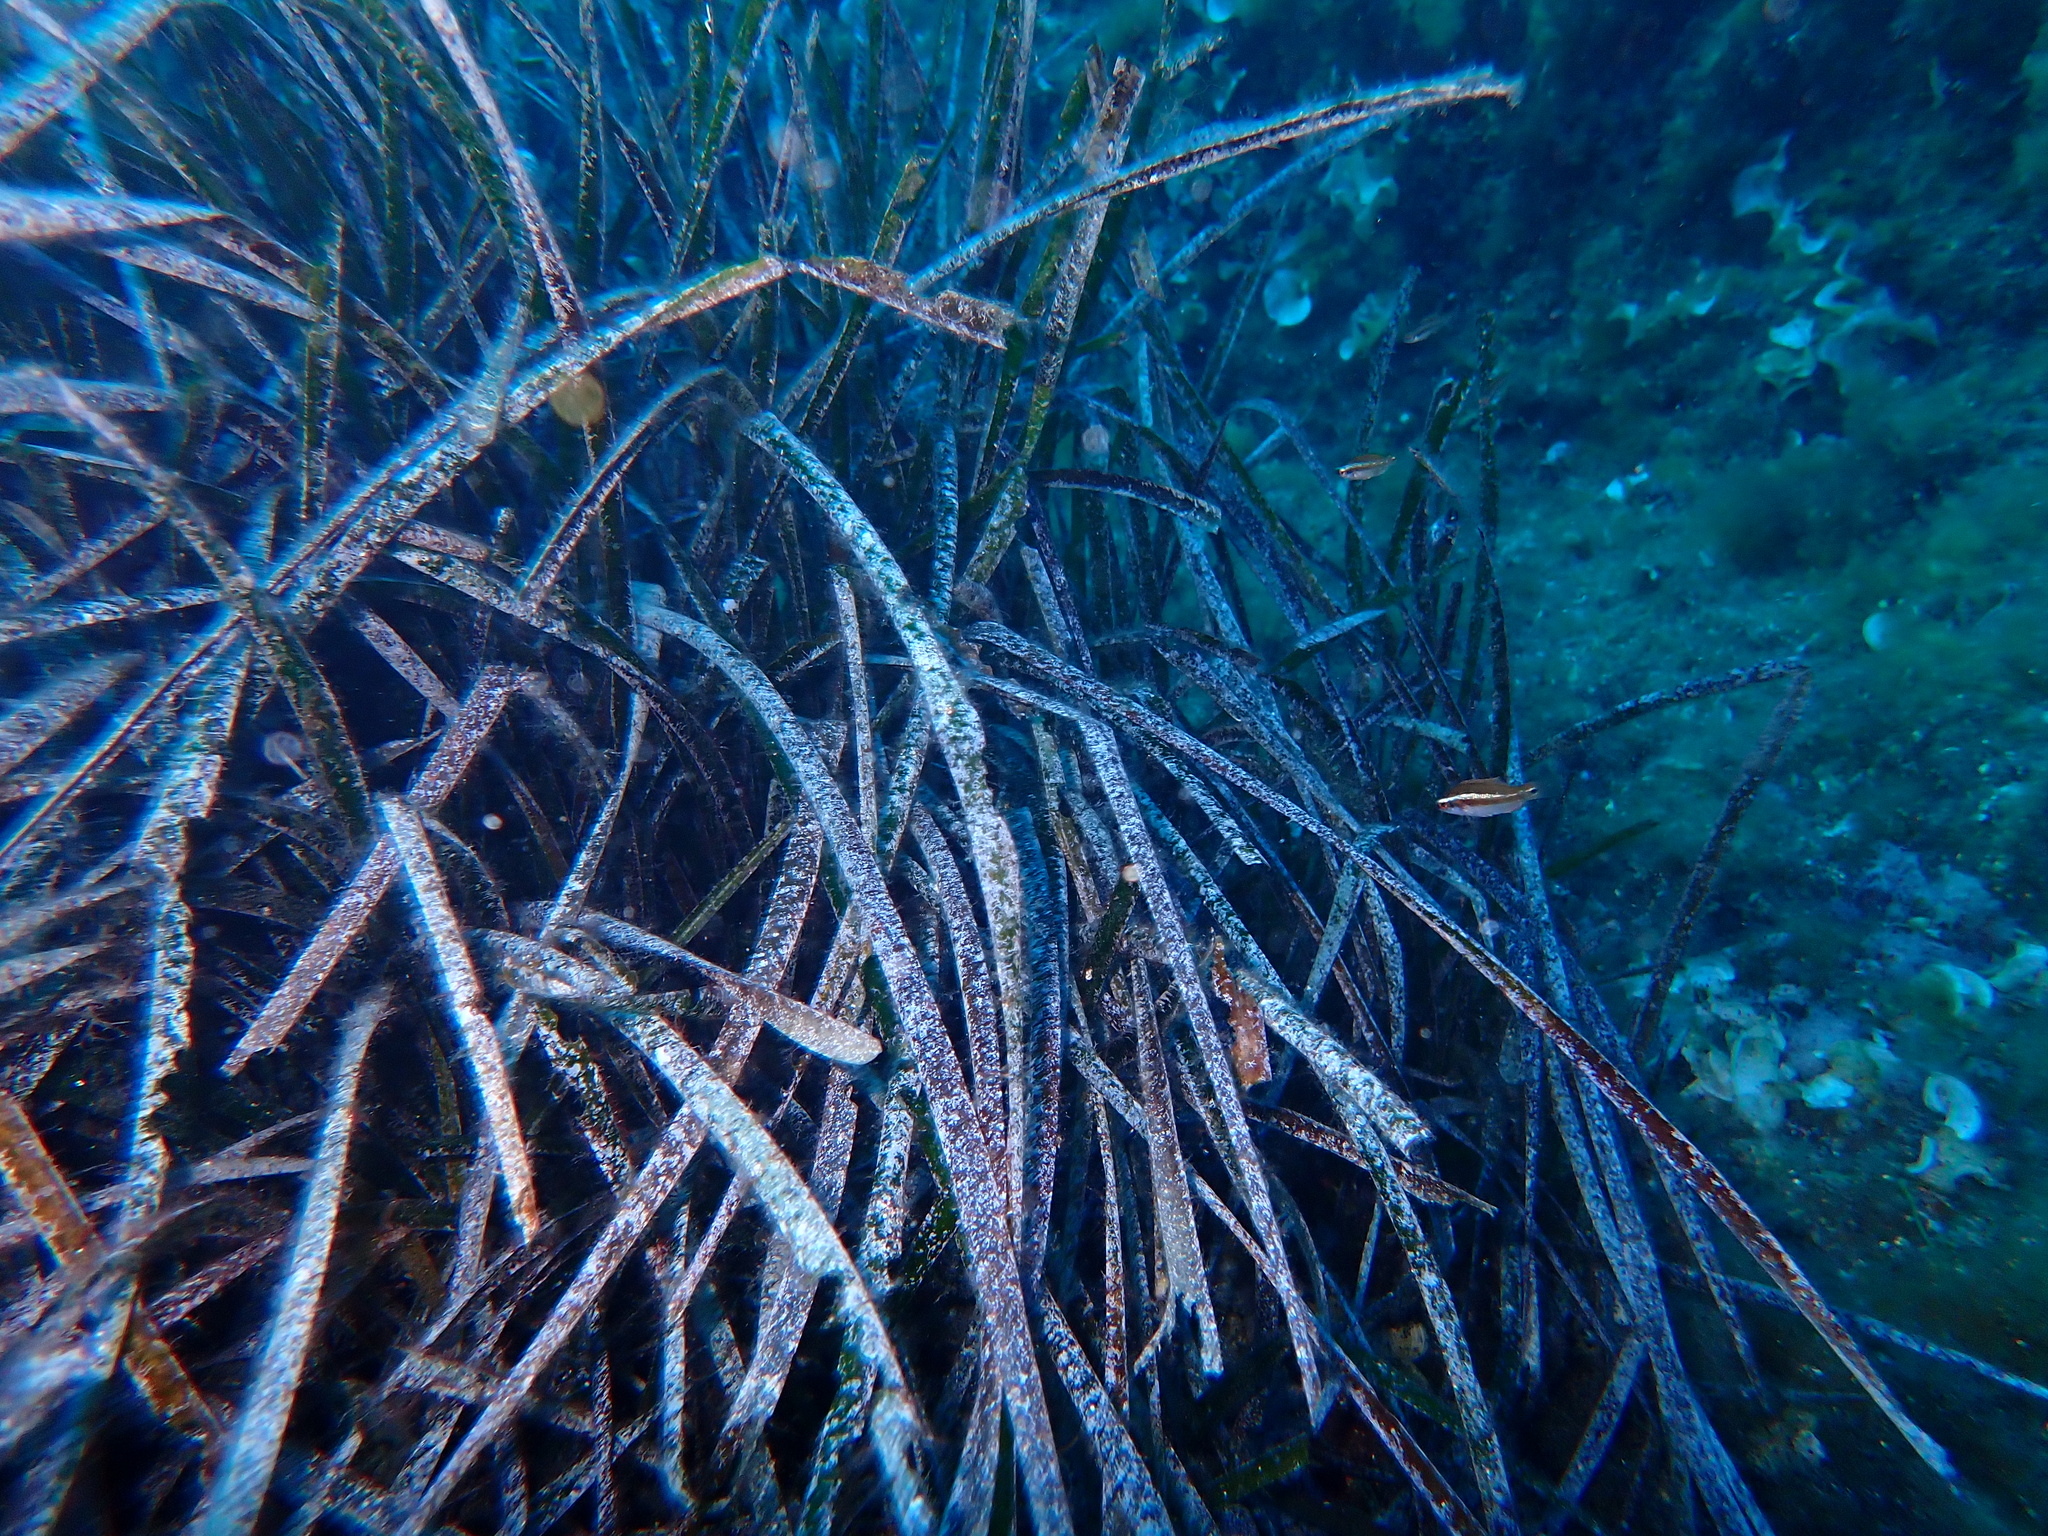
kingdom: Plantae
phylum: Tracheophyta
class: Liliopsida
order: Alismatales
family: Posidoniaceae
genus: Posidonia
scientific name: Posidonia oceanica
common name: Mediterranean tapeweed
